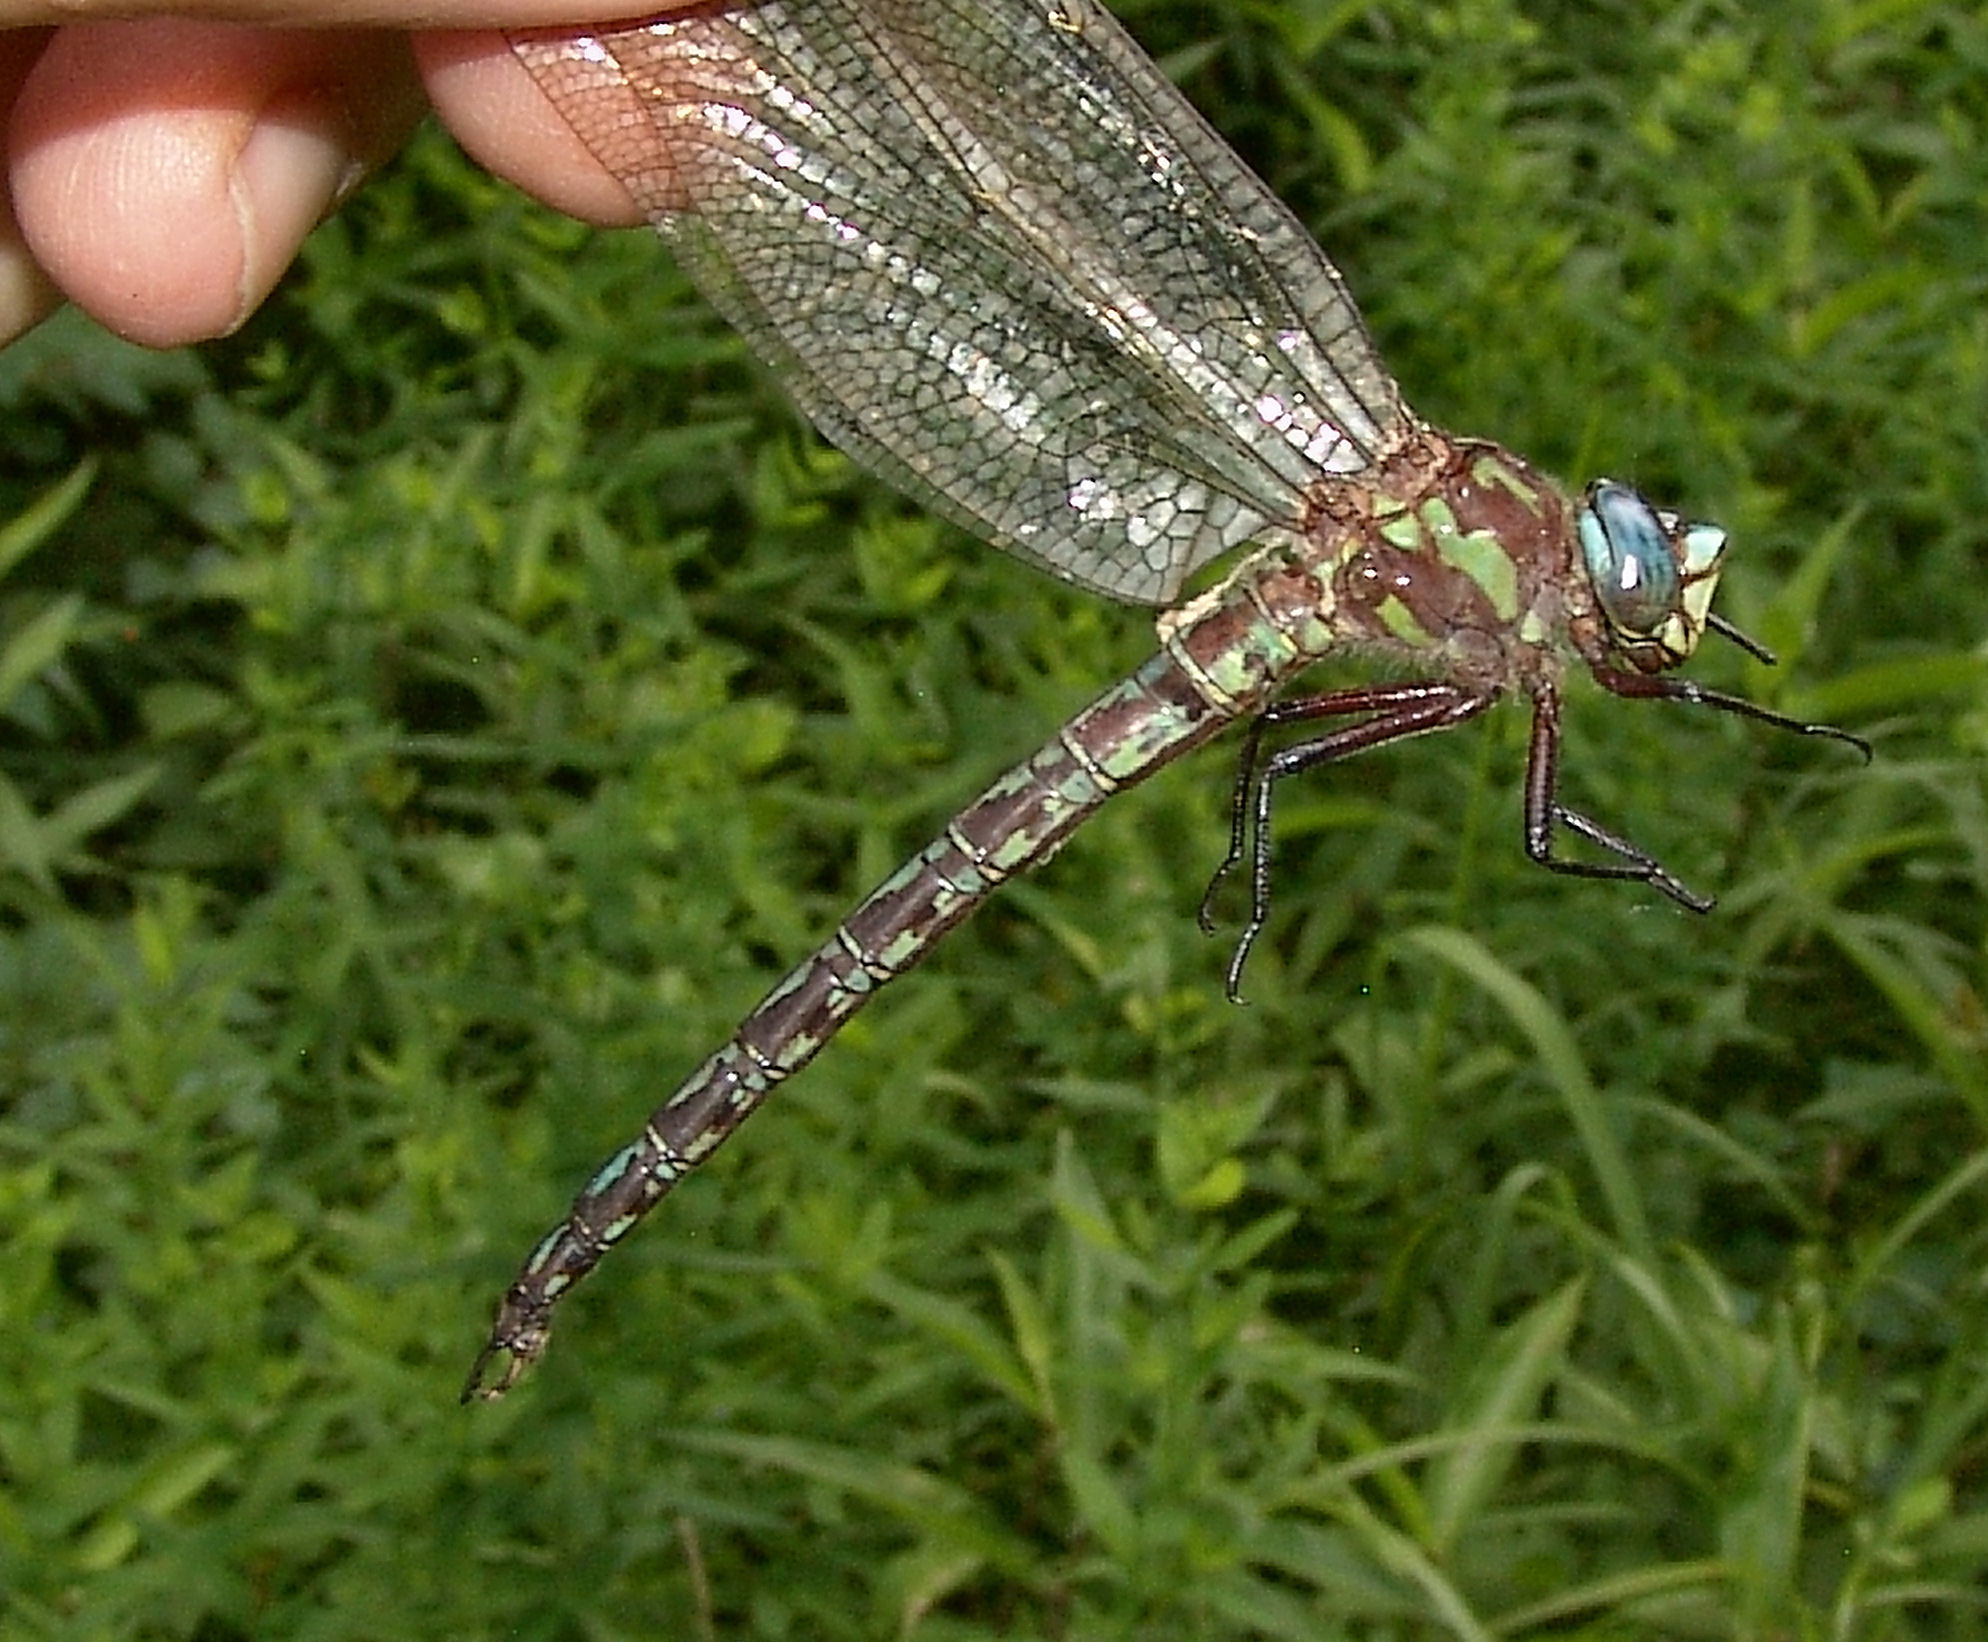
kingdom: Animalia
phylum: Arthropoda
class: Insecta
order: Odonata
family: Aeshnidae
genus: Nasiaeschna
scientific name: Nasiaeschna pentacantha
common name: Cyrano darner
